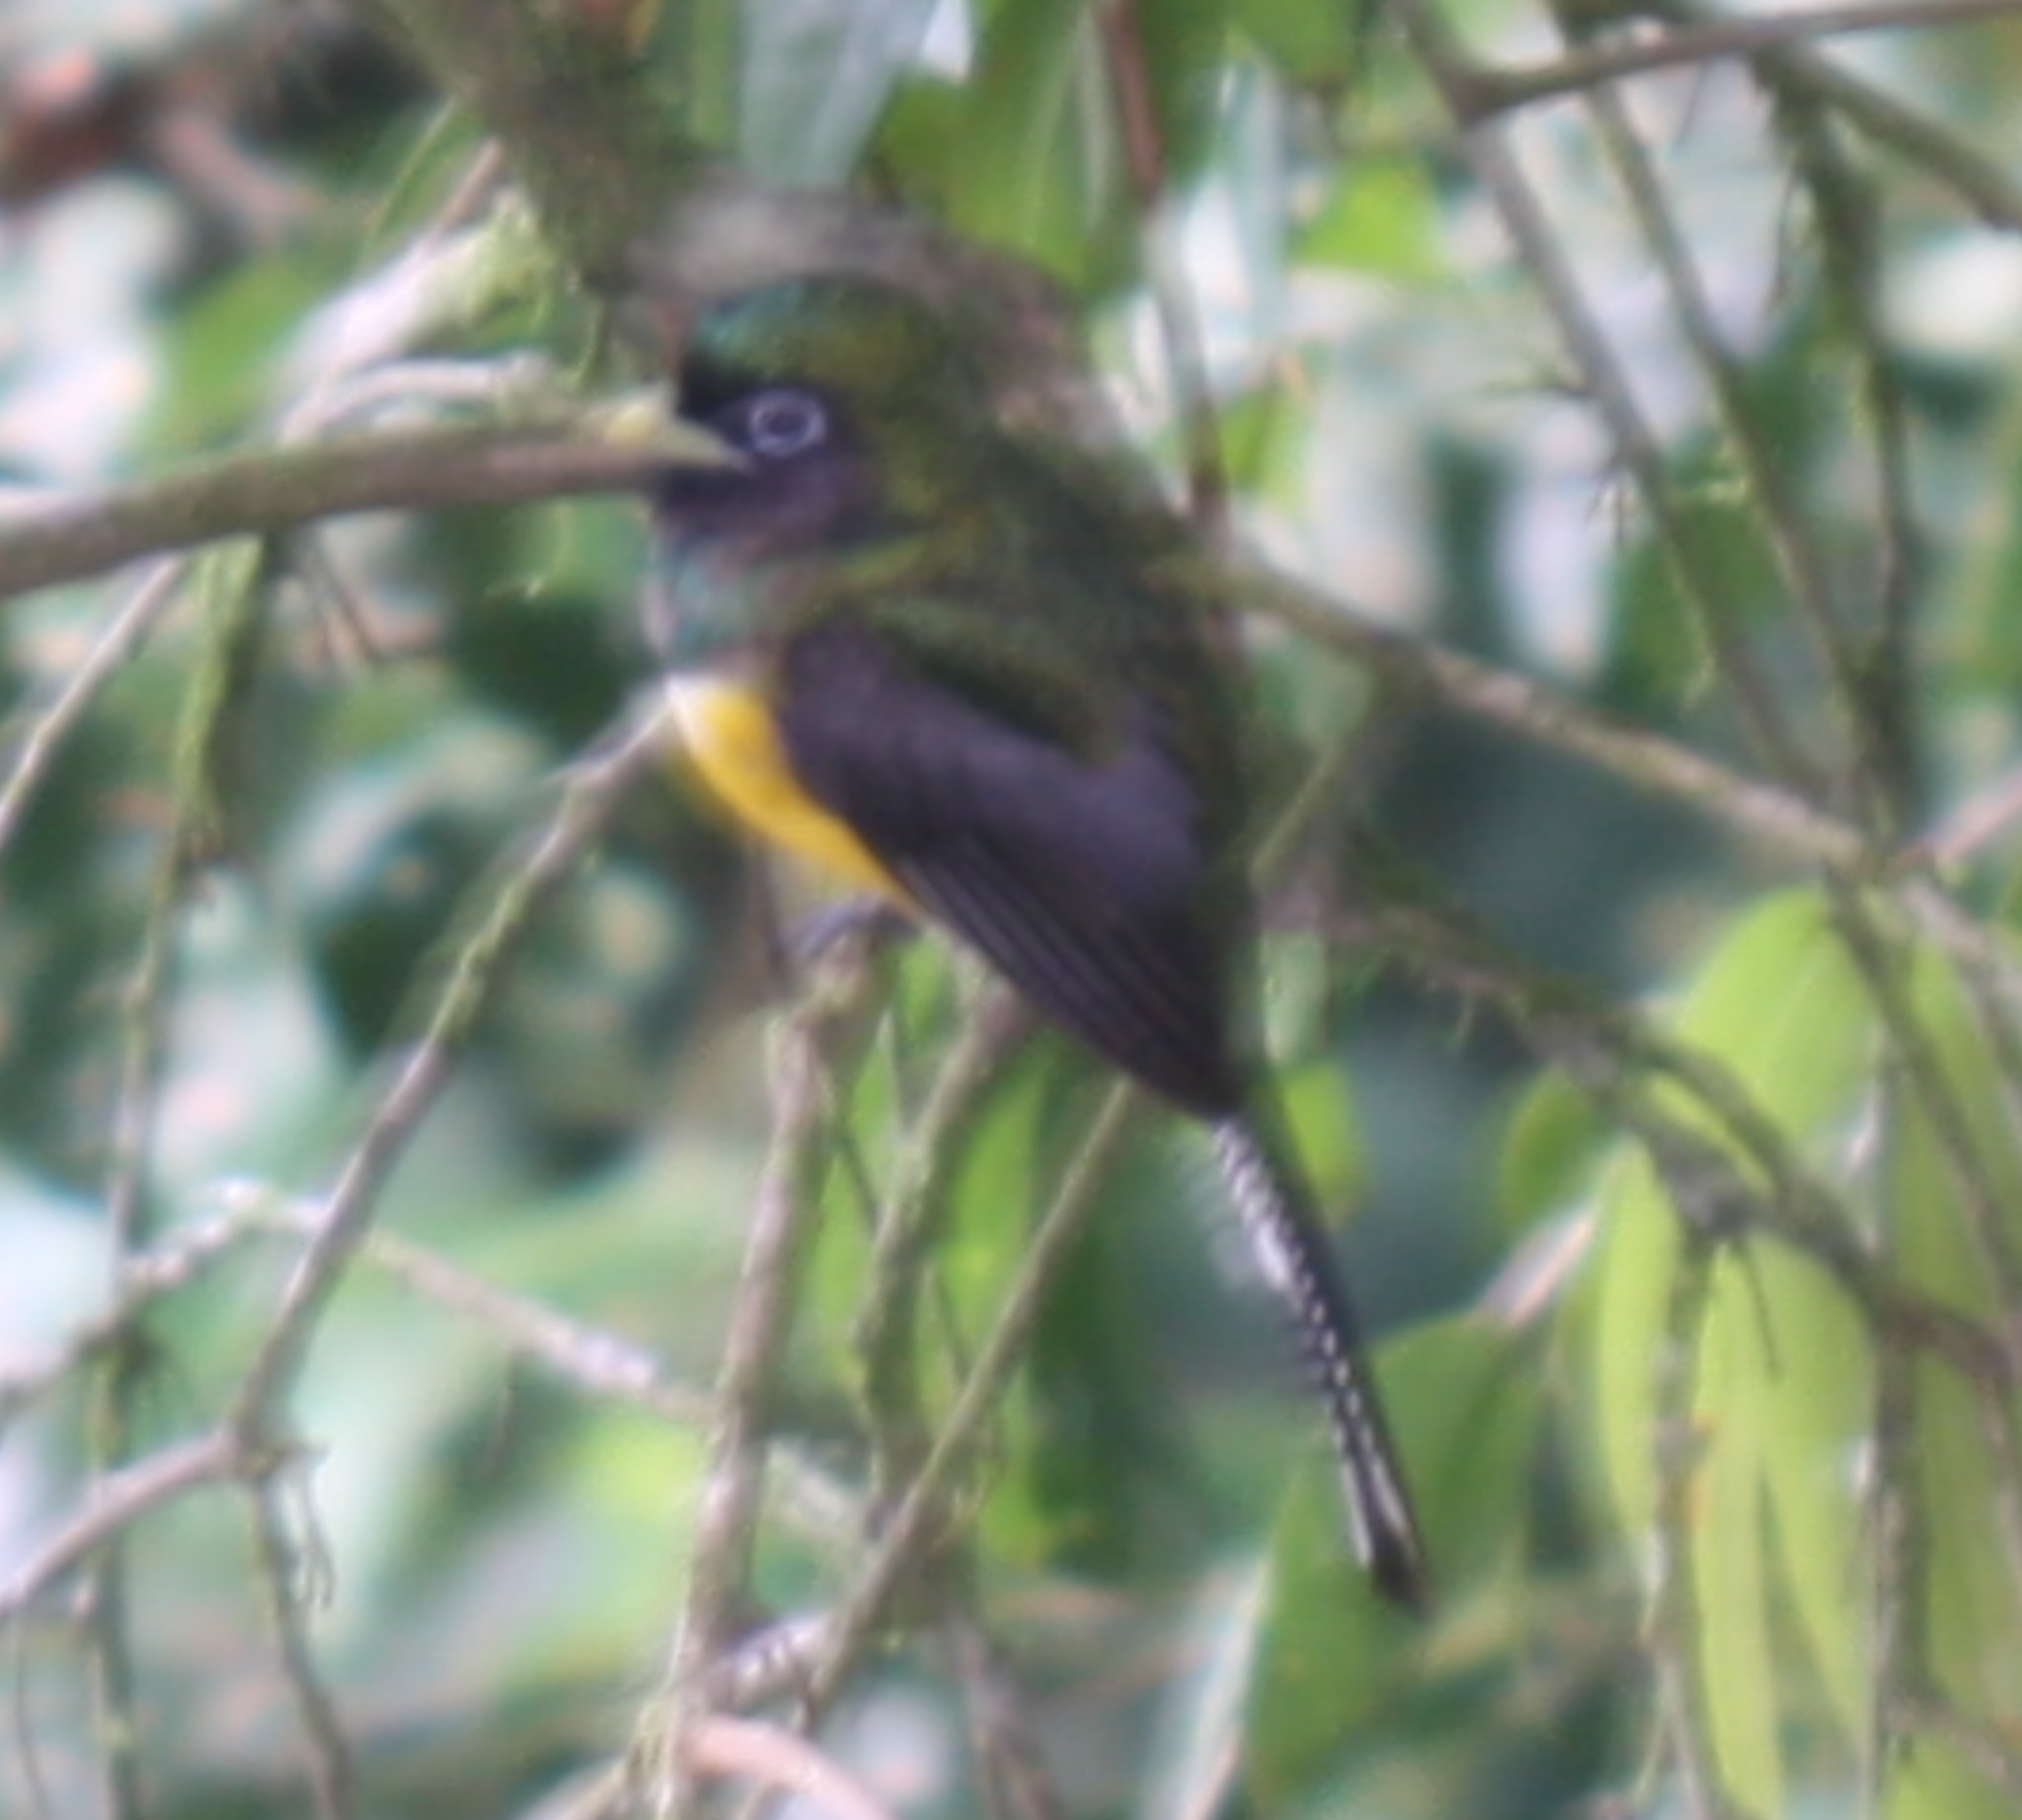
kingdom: Animalia
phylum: Chordata
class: Aves
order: Trogoniformes
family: Trogonidae
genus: Trogon
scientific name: Trogon rufus
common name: Black-throated trogon
